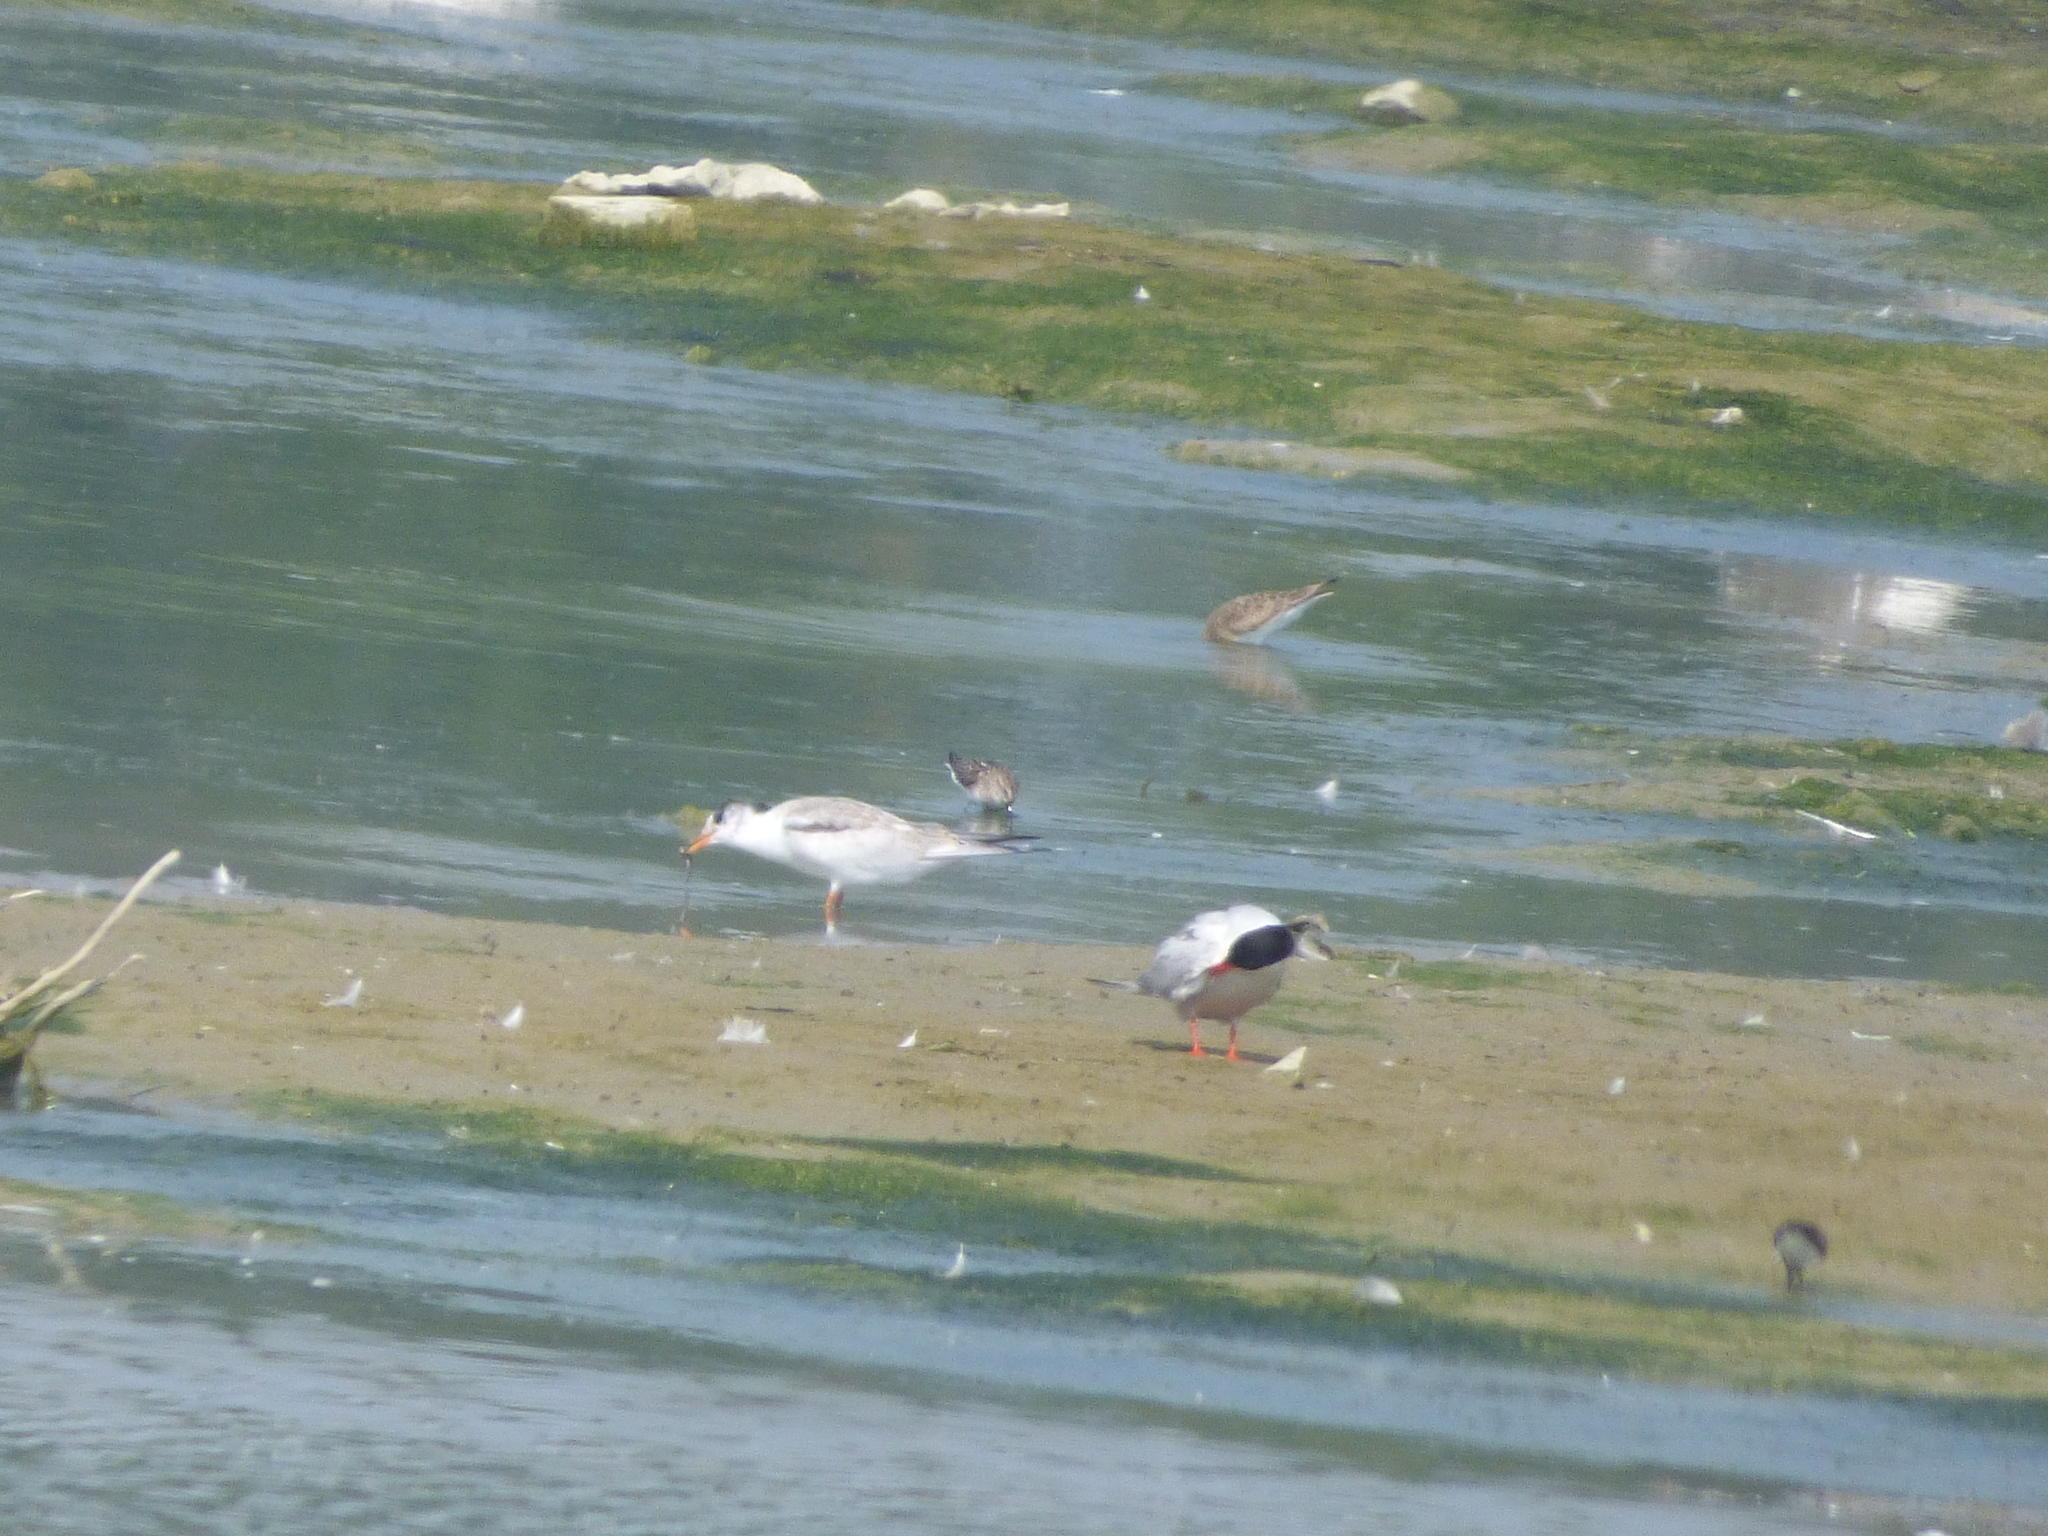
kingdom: Animalia
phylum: Chordata
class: Aves
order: Charadriiformes
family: Laridae
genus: Sterna
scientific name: Sterna hirundo
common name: Common tern
